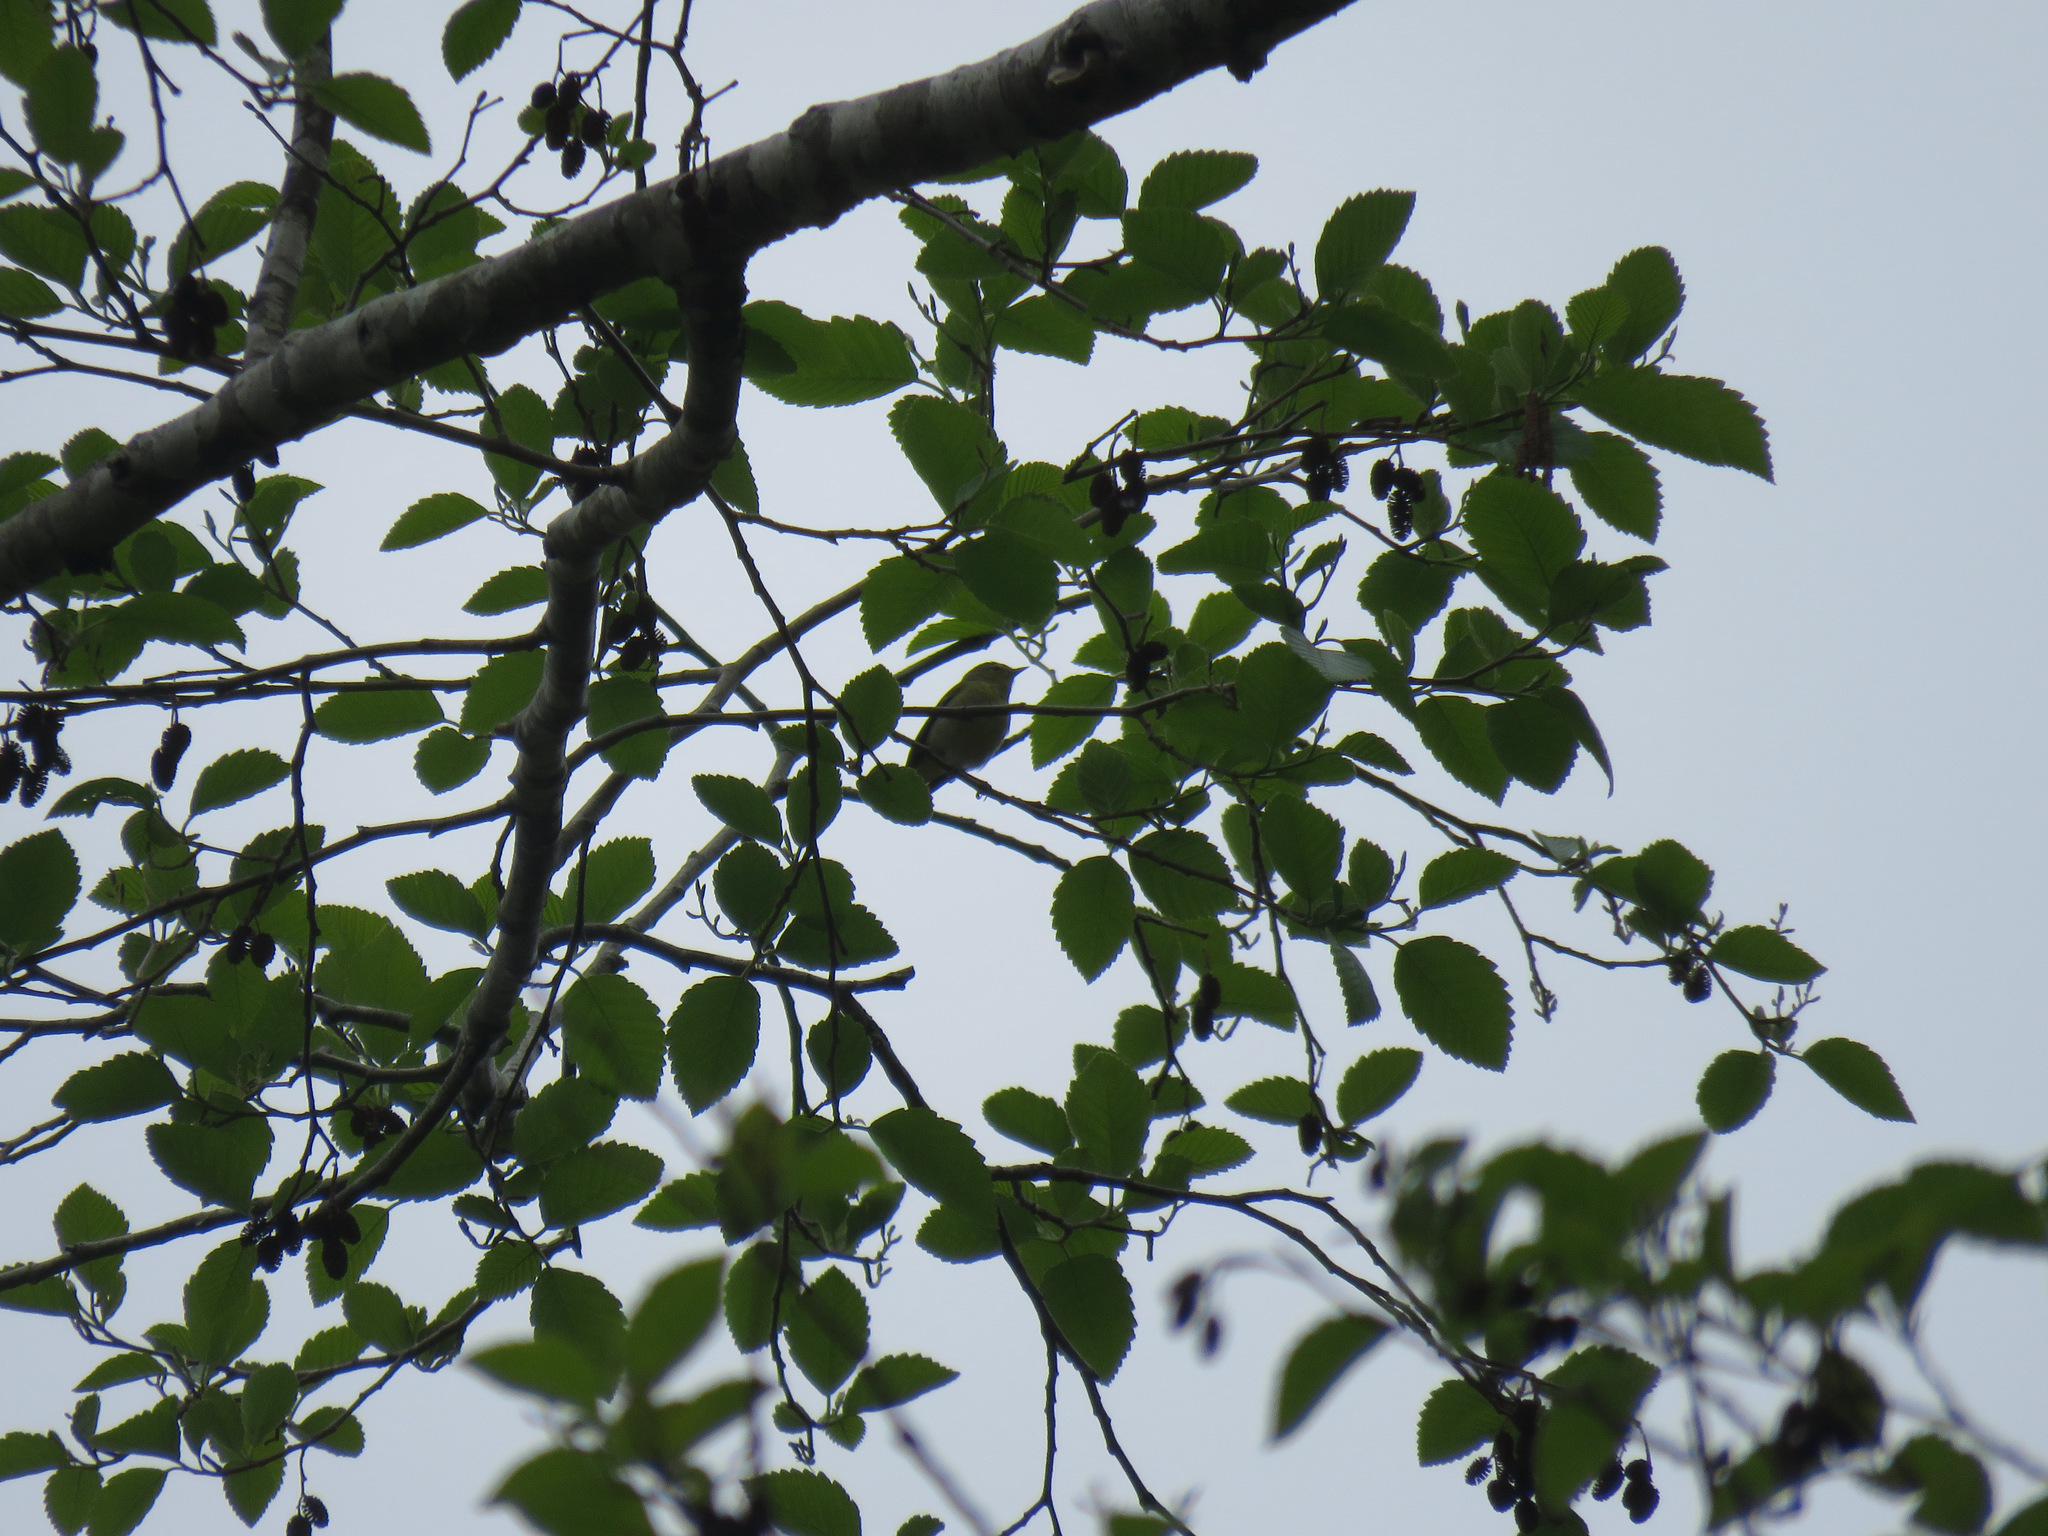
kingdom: Animalia
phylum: Chordata
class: Aves
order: Passeriformes
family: Vireonidae
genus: Vireo
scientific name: Vireo gilvus
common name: Warbling vireo
